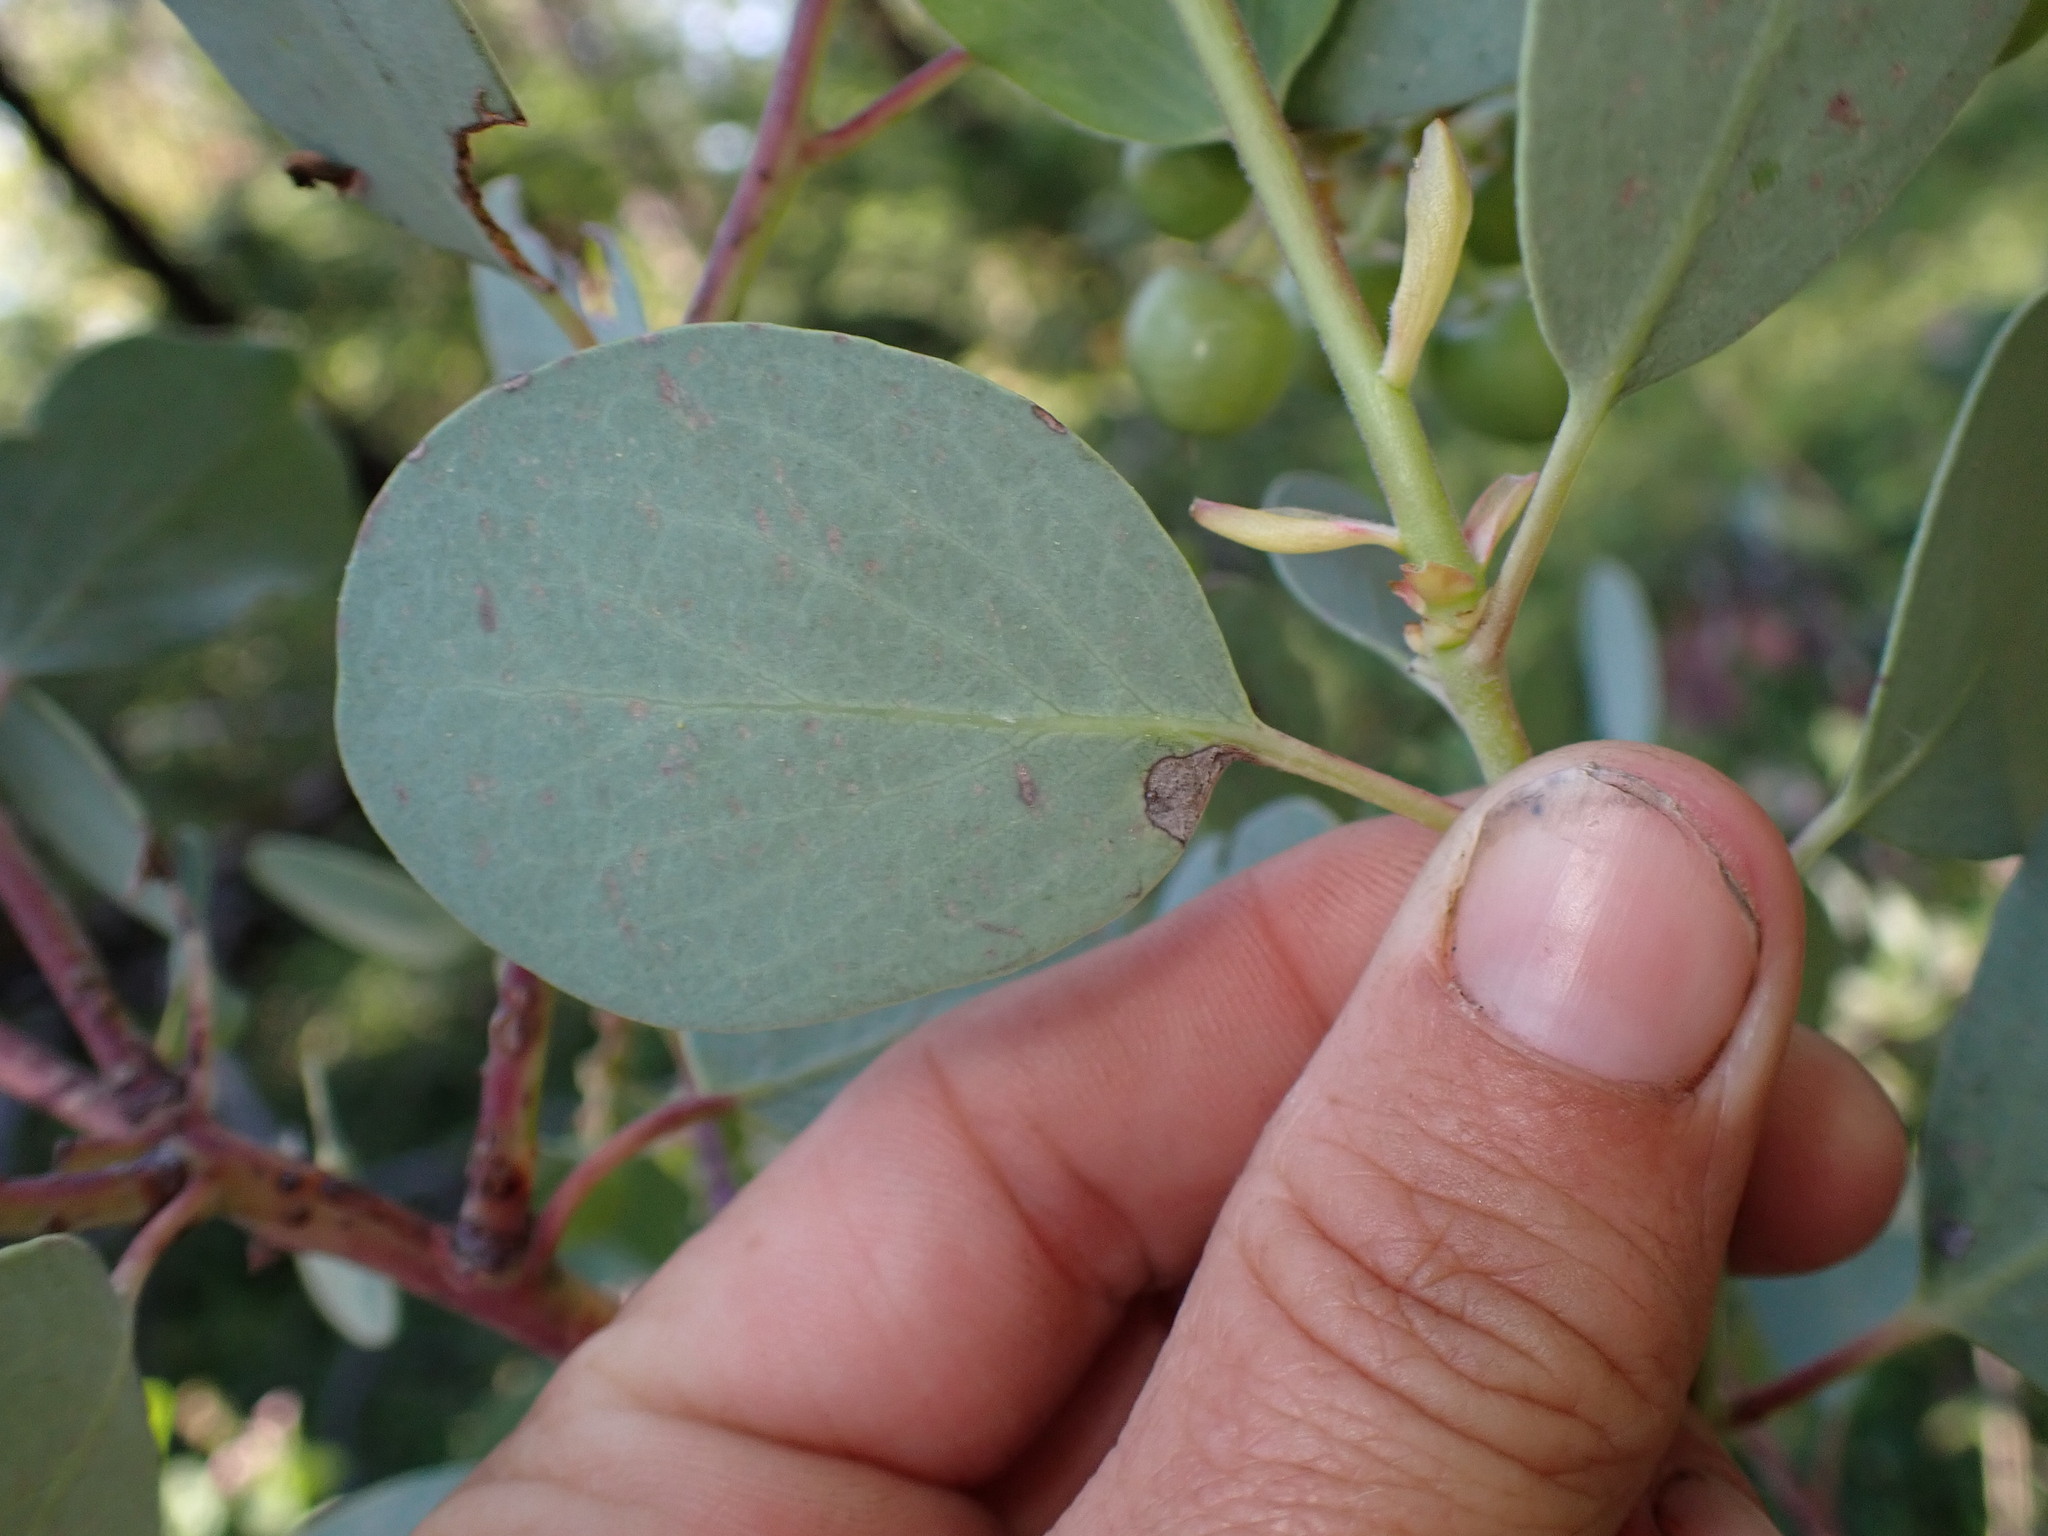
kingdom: Plantae
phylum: Tracheophyta
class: Magnoliopsida
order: Ericales
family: Ericaceae
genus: Arctostaphylos
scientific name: Arctostaphylos mewukka
